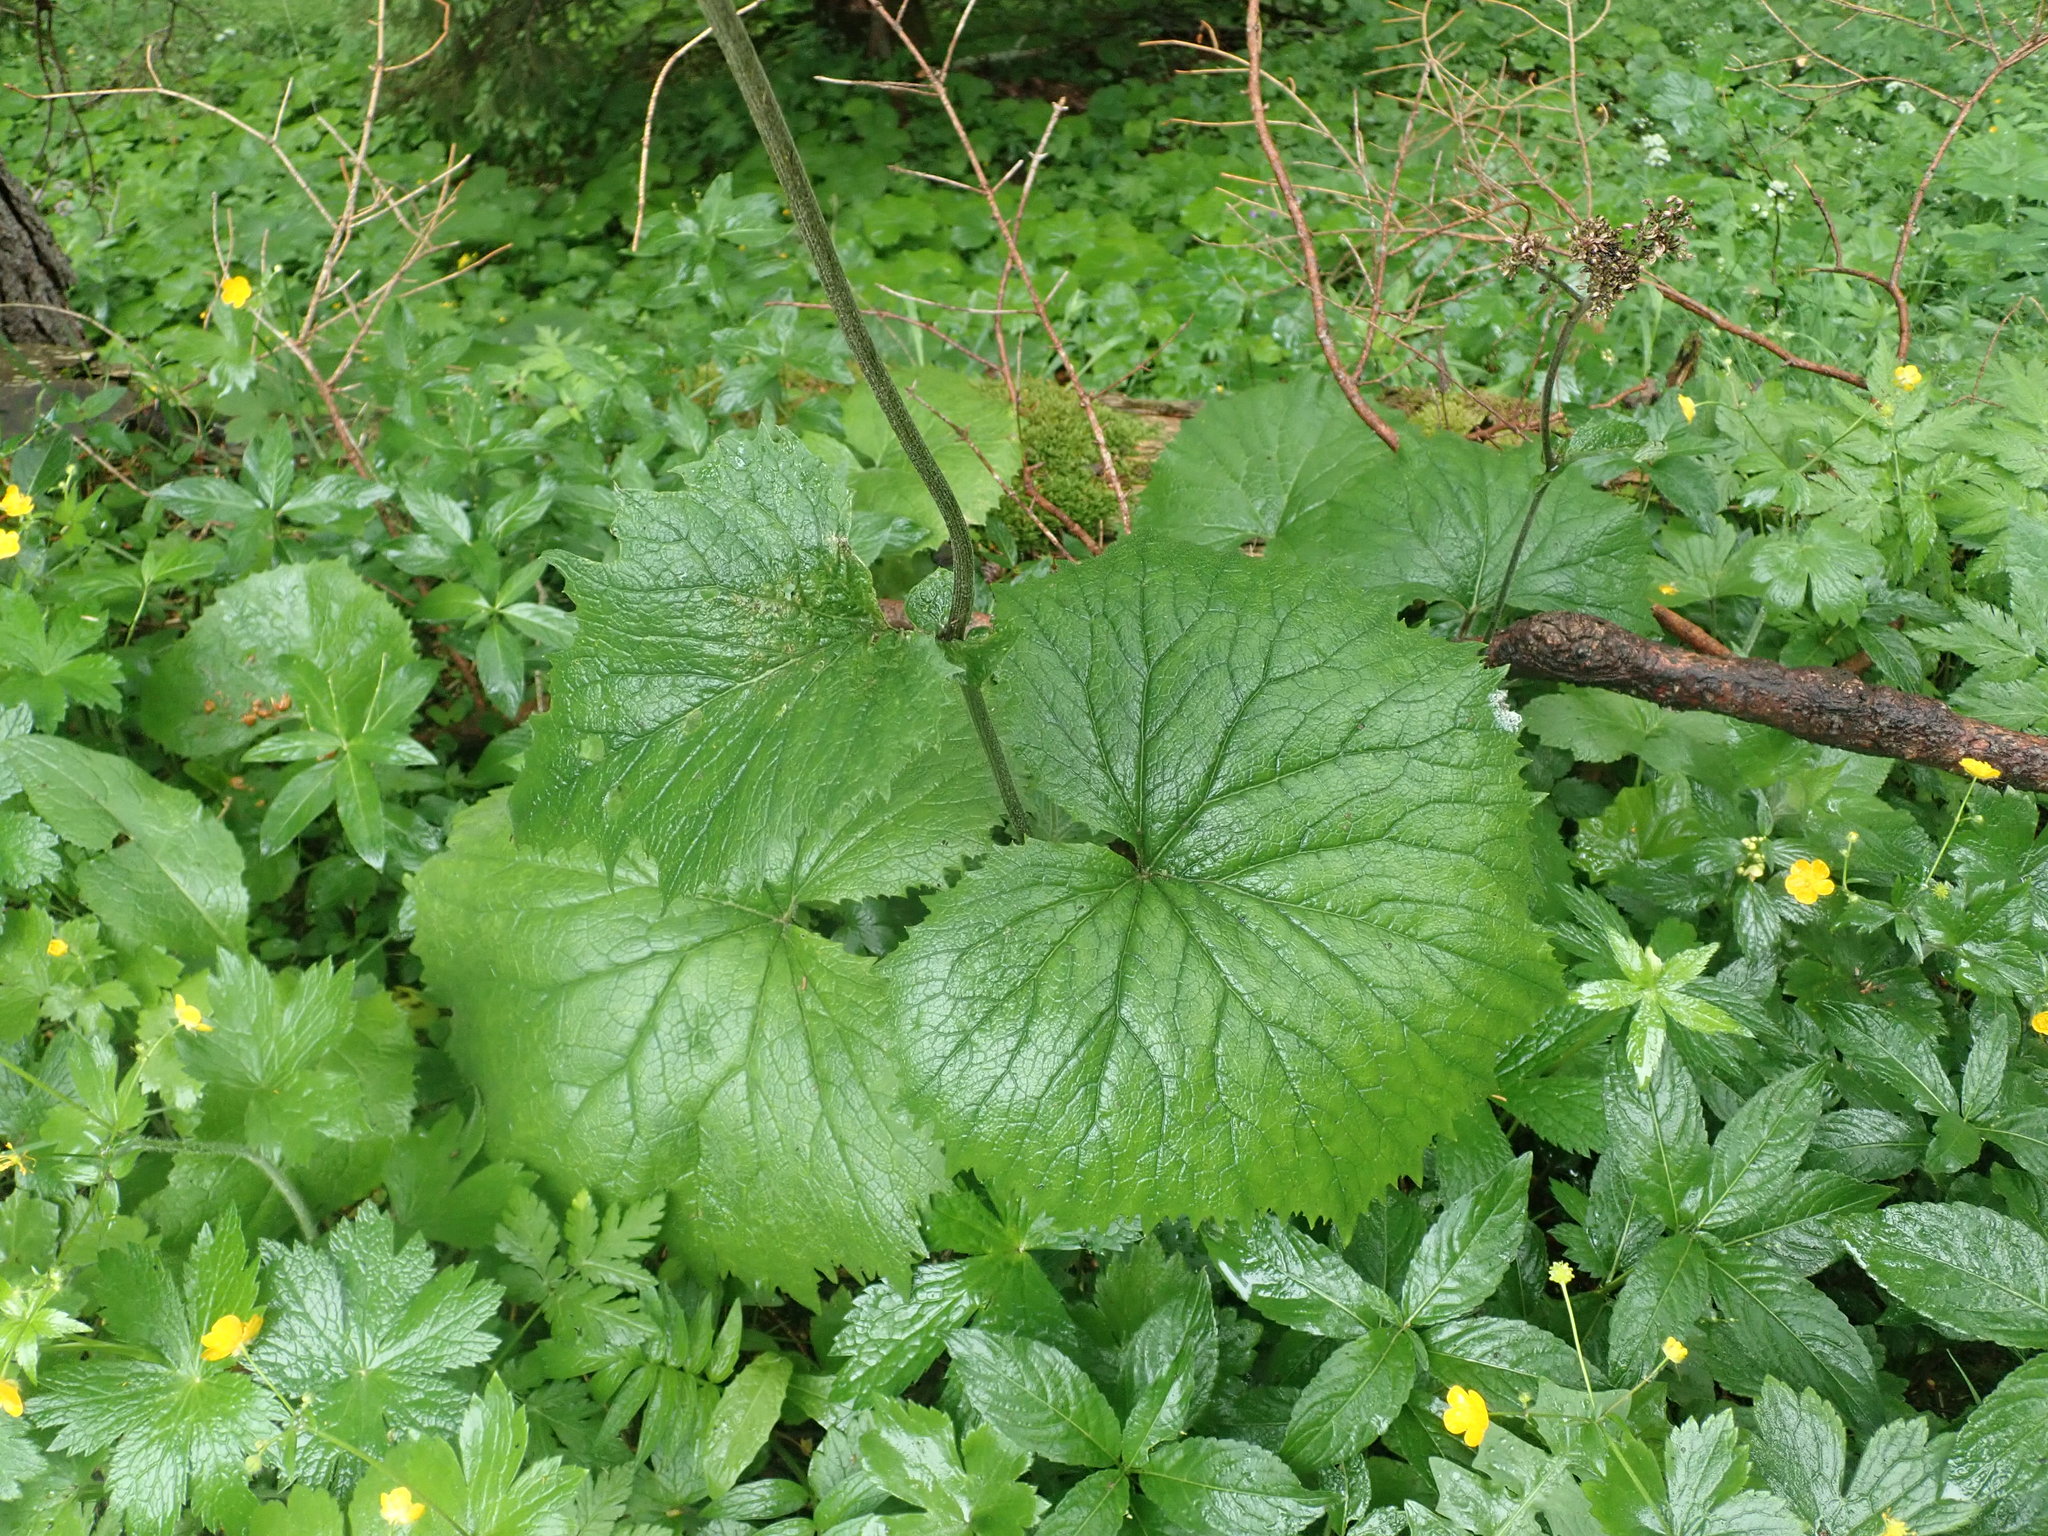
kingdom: Plantae
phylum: Tracheophyta
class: Magnoliopsida
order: Asterales
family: Asteraceae
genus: Adenostyles
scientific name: Adenostyles alliariae
